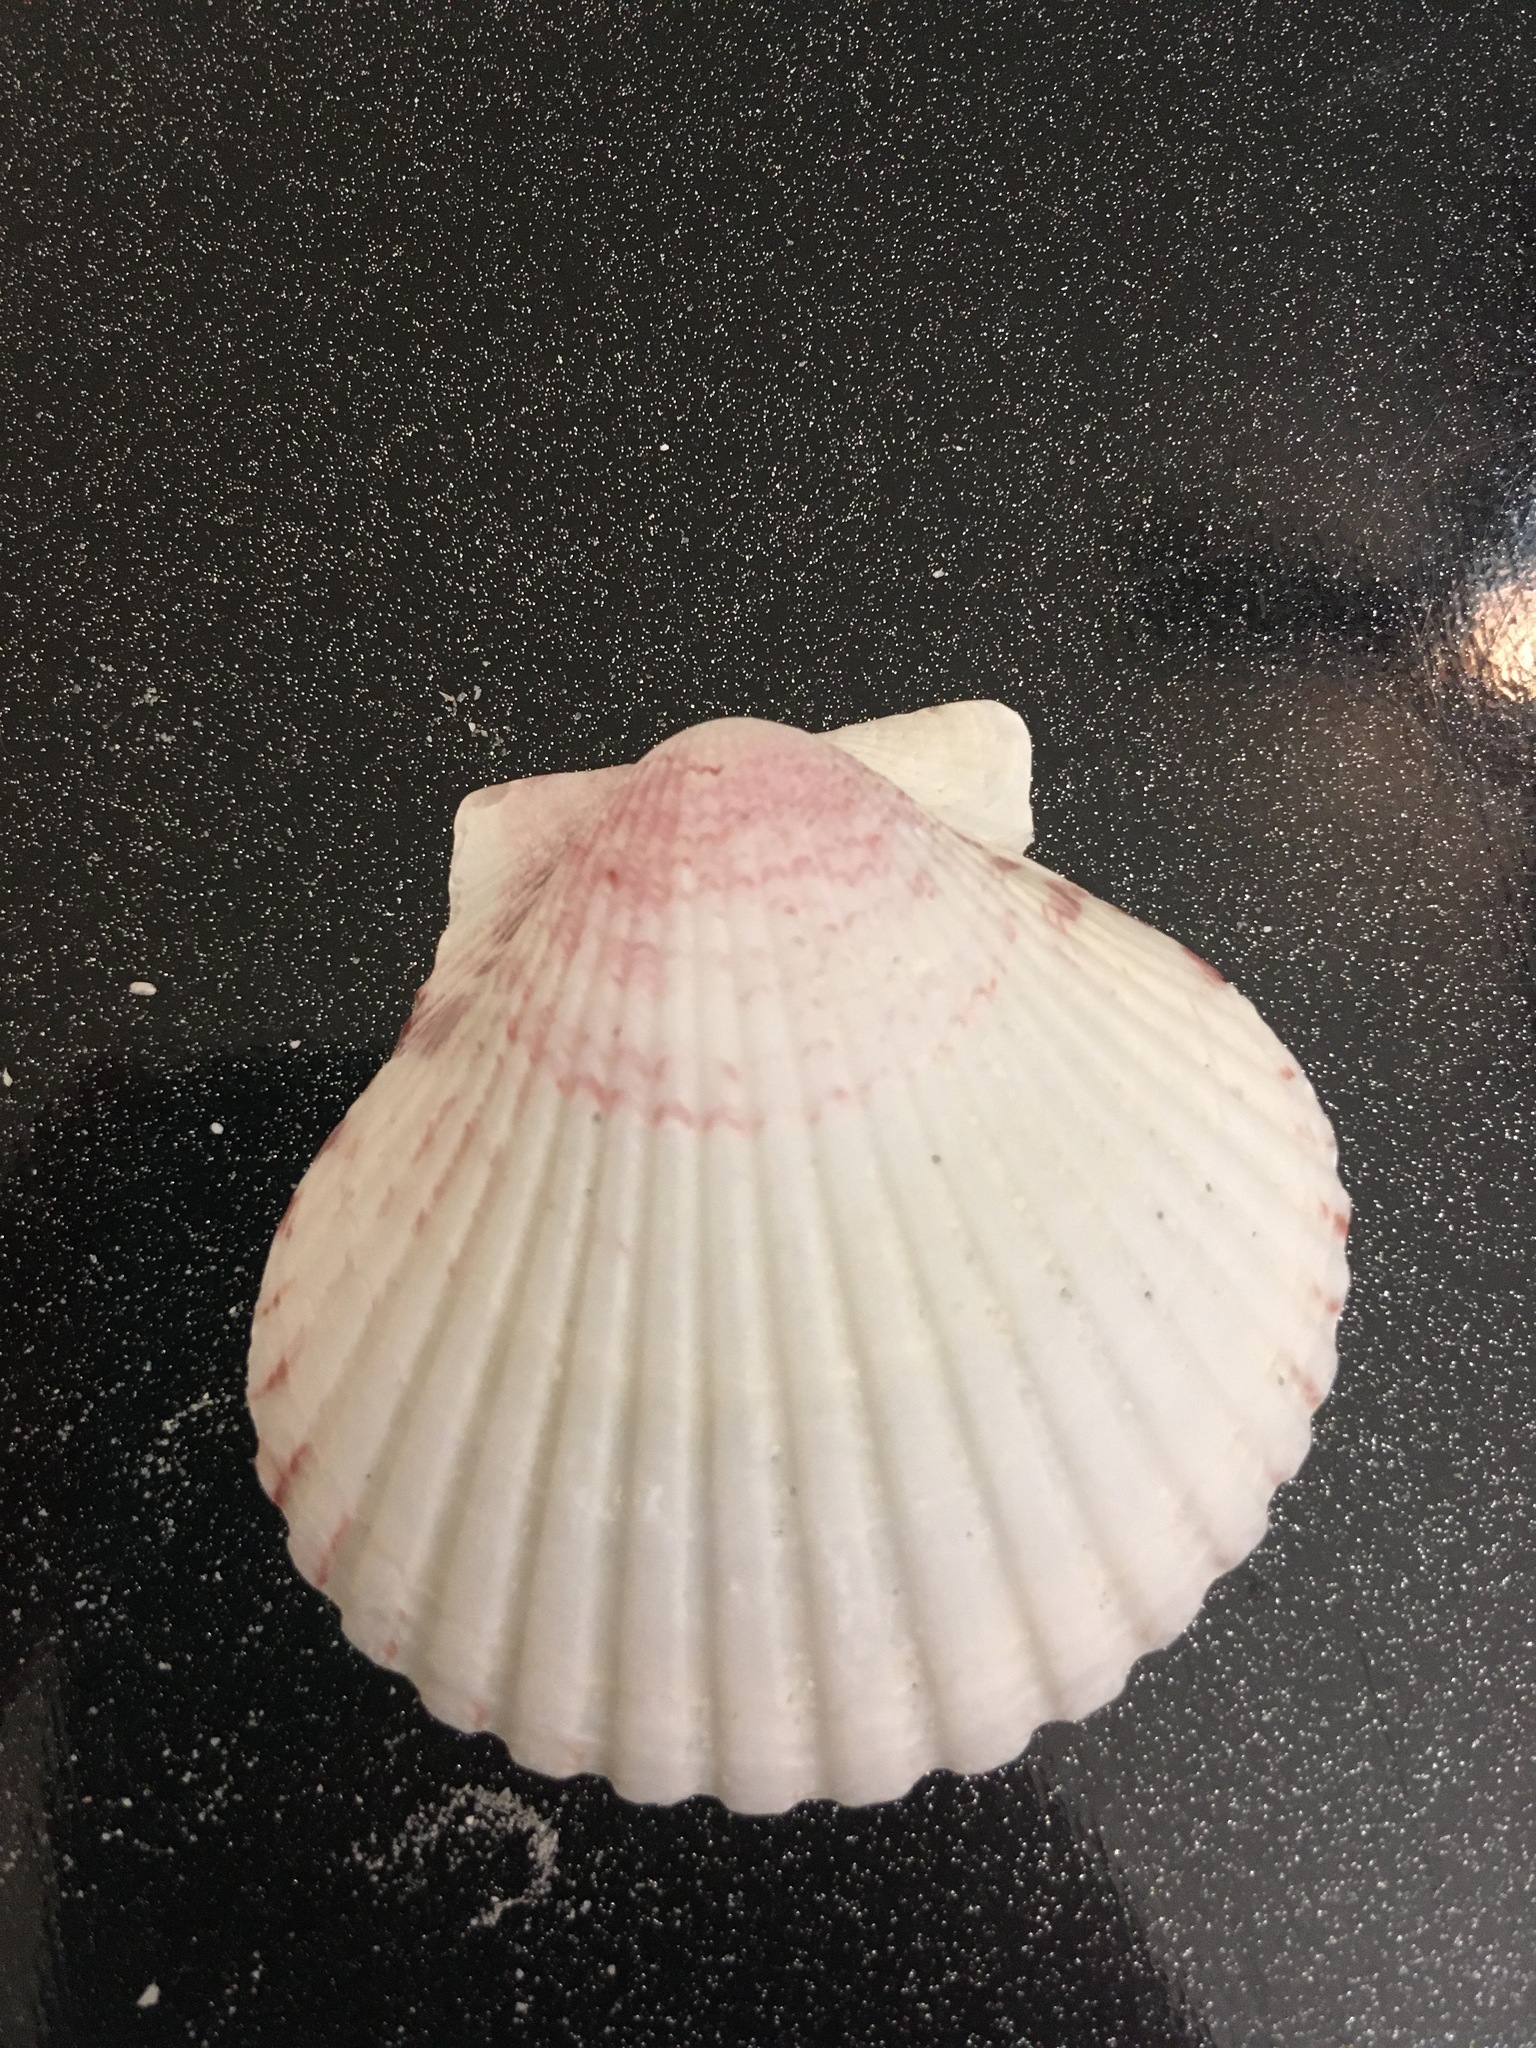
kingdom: Animalia
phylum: Mollusca
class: Bivalvia
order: Pectinida
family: Pectinidae
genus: Argopecten
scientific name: Argopecten gibbus
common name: Atlantic calico scallop
